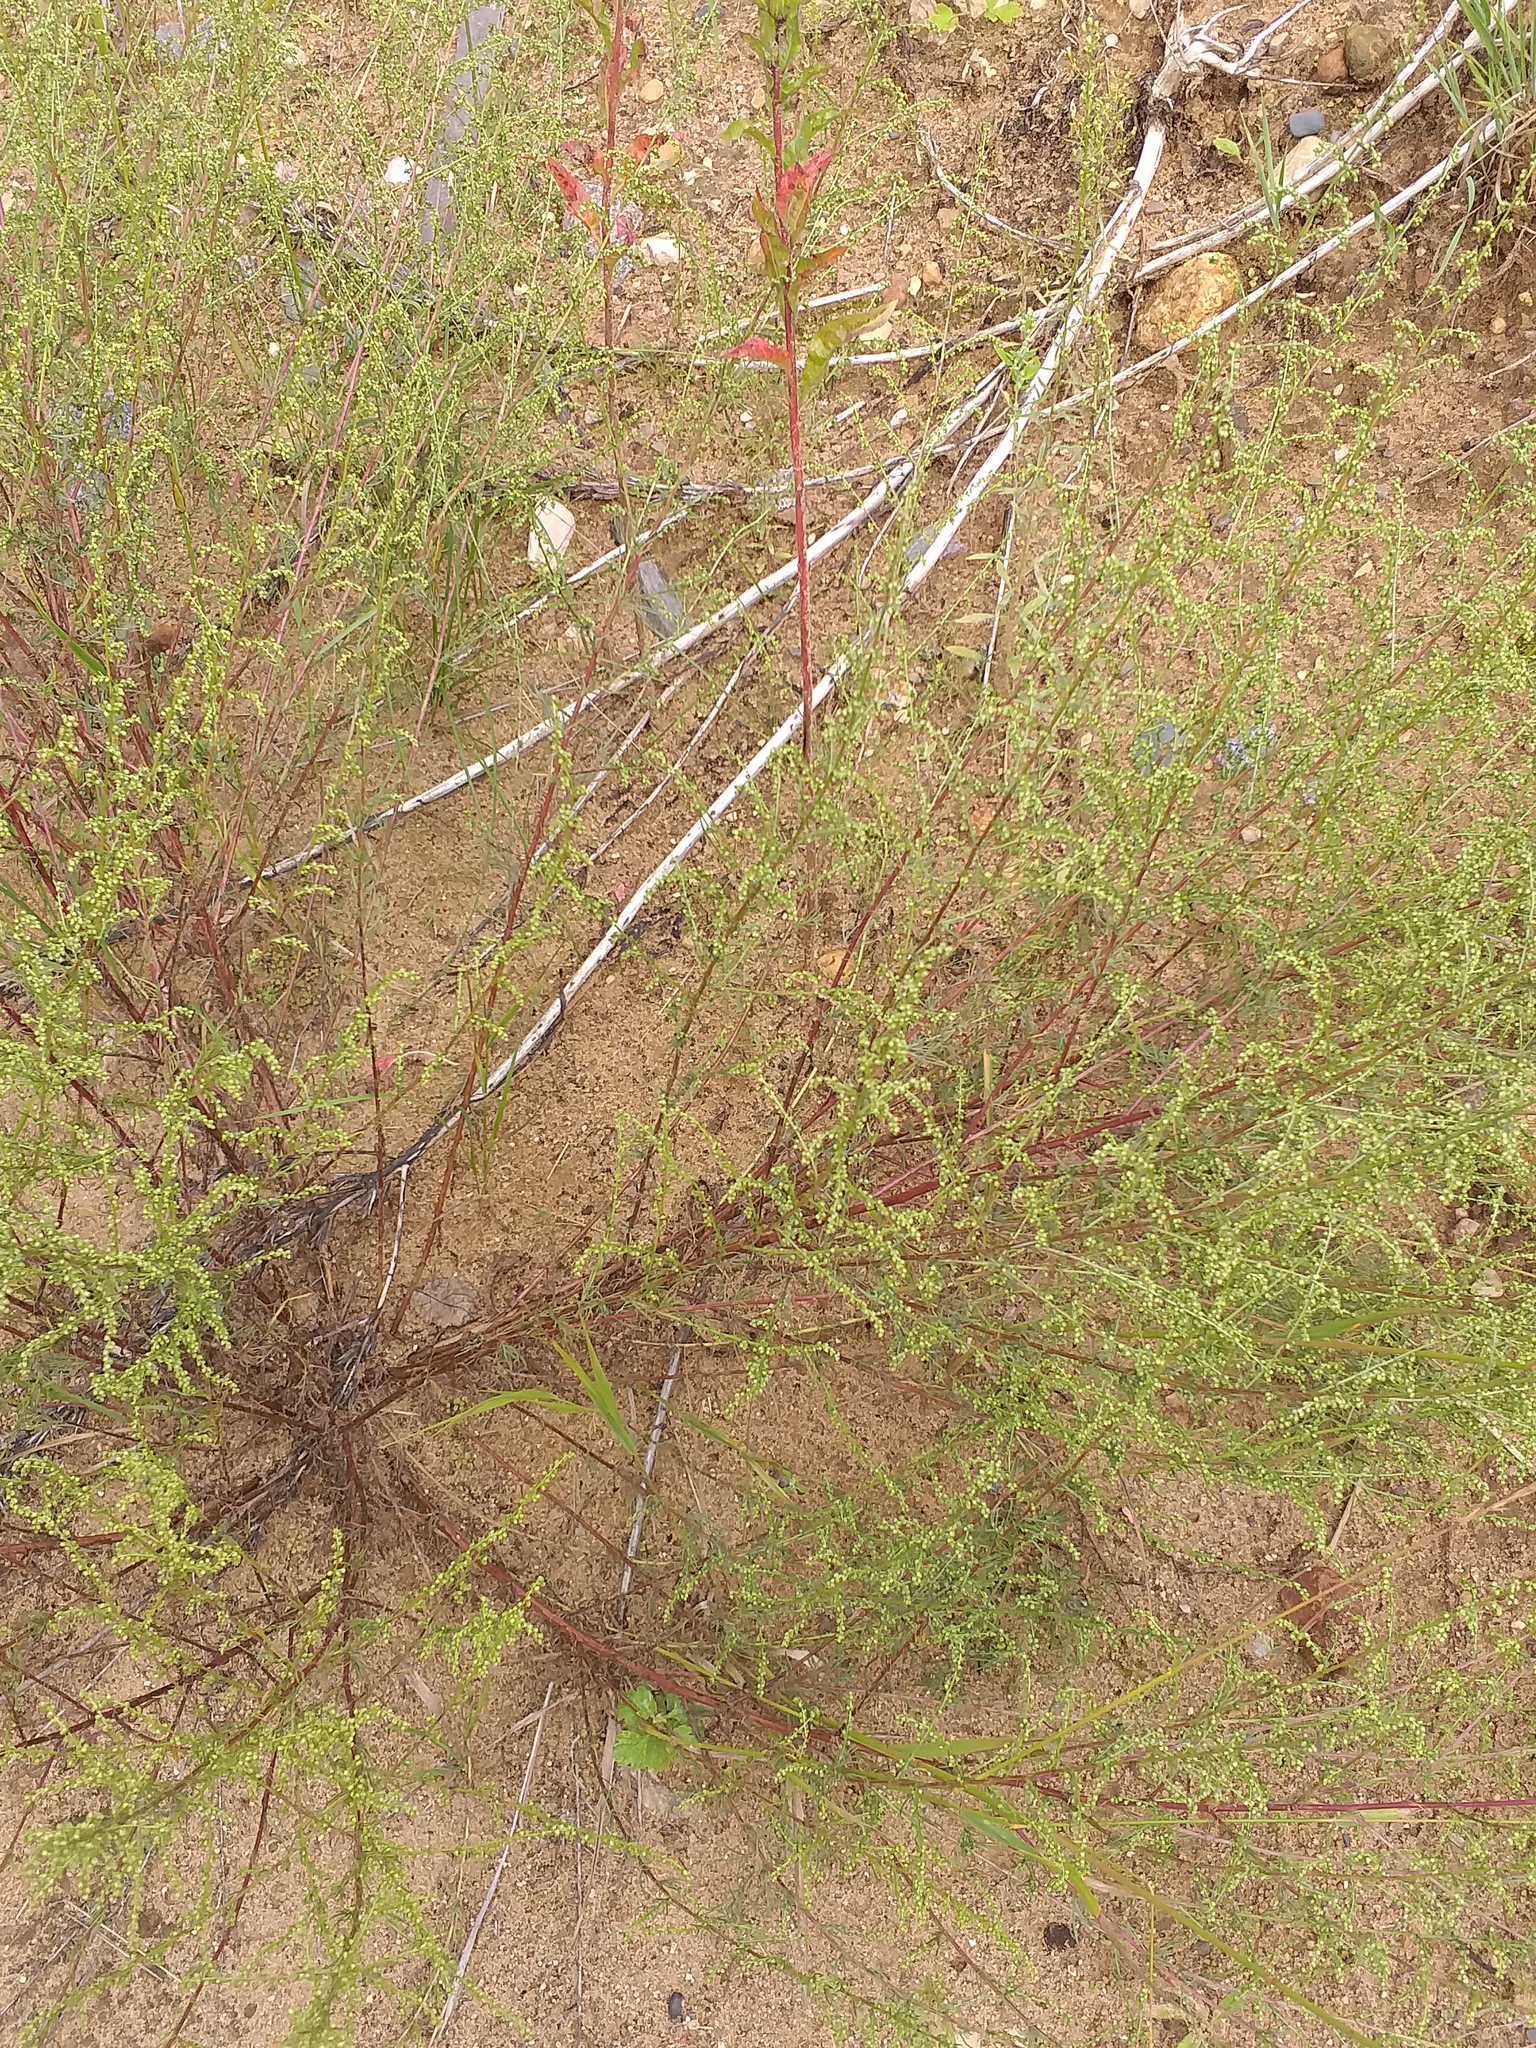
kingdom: Plantae
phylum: Tracheophyta
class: Magnoliopsida
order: Asterales
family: Asteraceae
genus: Artemisia
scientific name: Artemisia campestris
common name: Field wormwood
